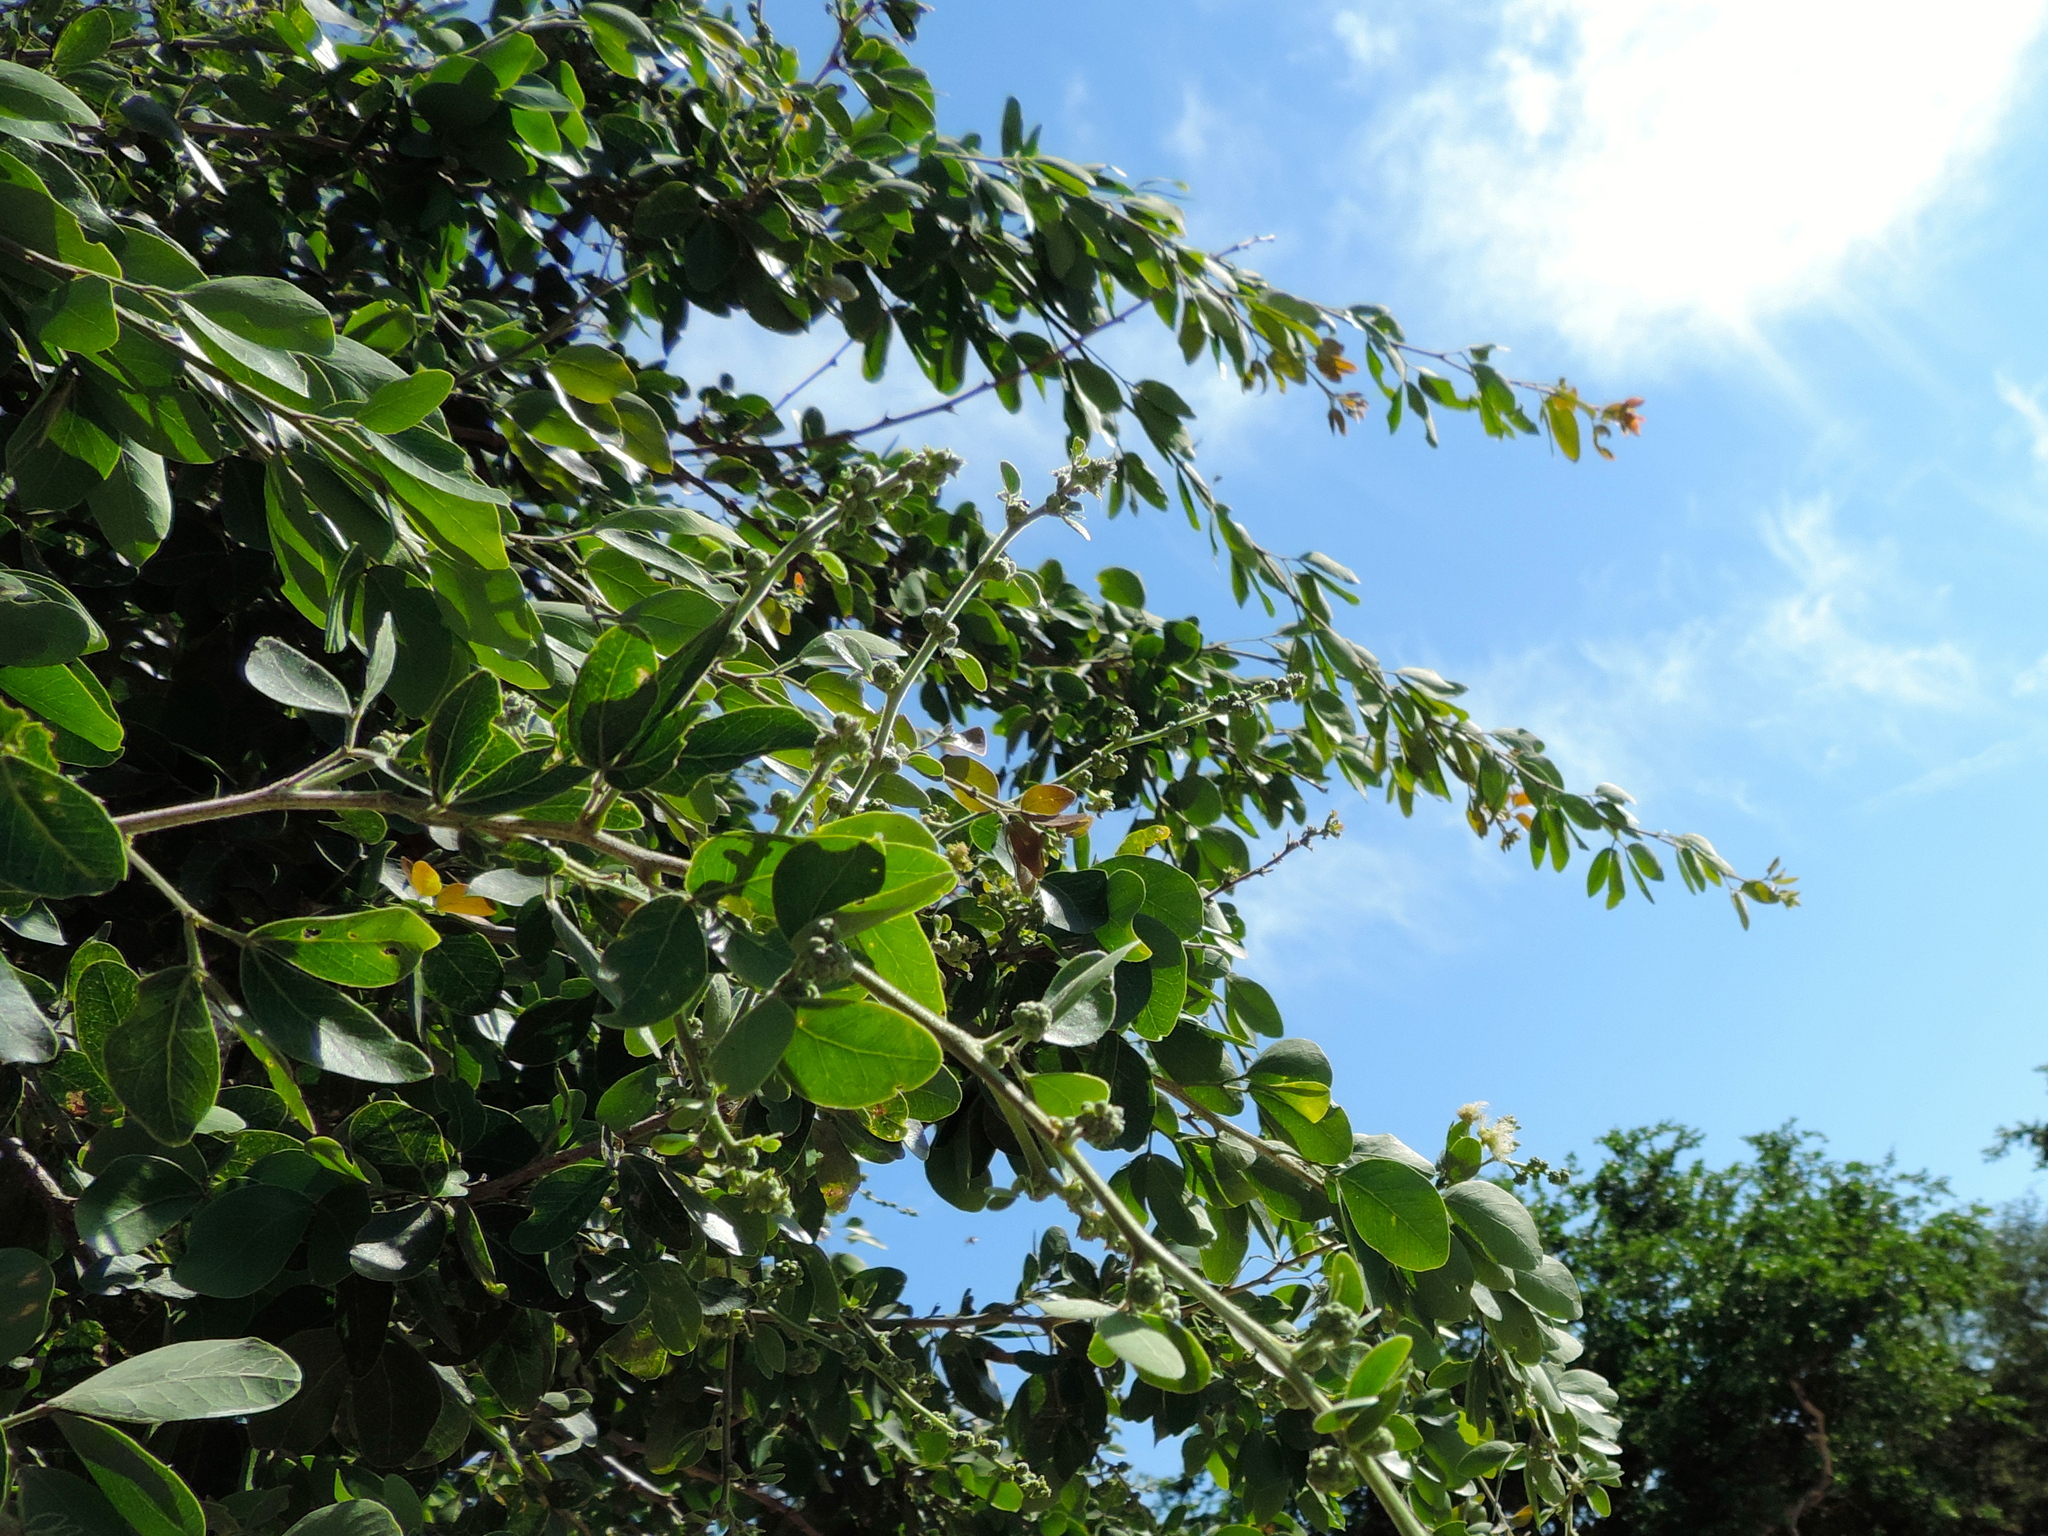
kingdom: Plantae
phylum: Tracheophyta
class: Magnoliopsida
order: Fabales
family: Fabaceae
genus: Pithecellobium
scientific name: Pithecellobium dulce
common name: Monkeypod
